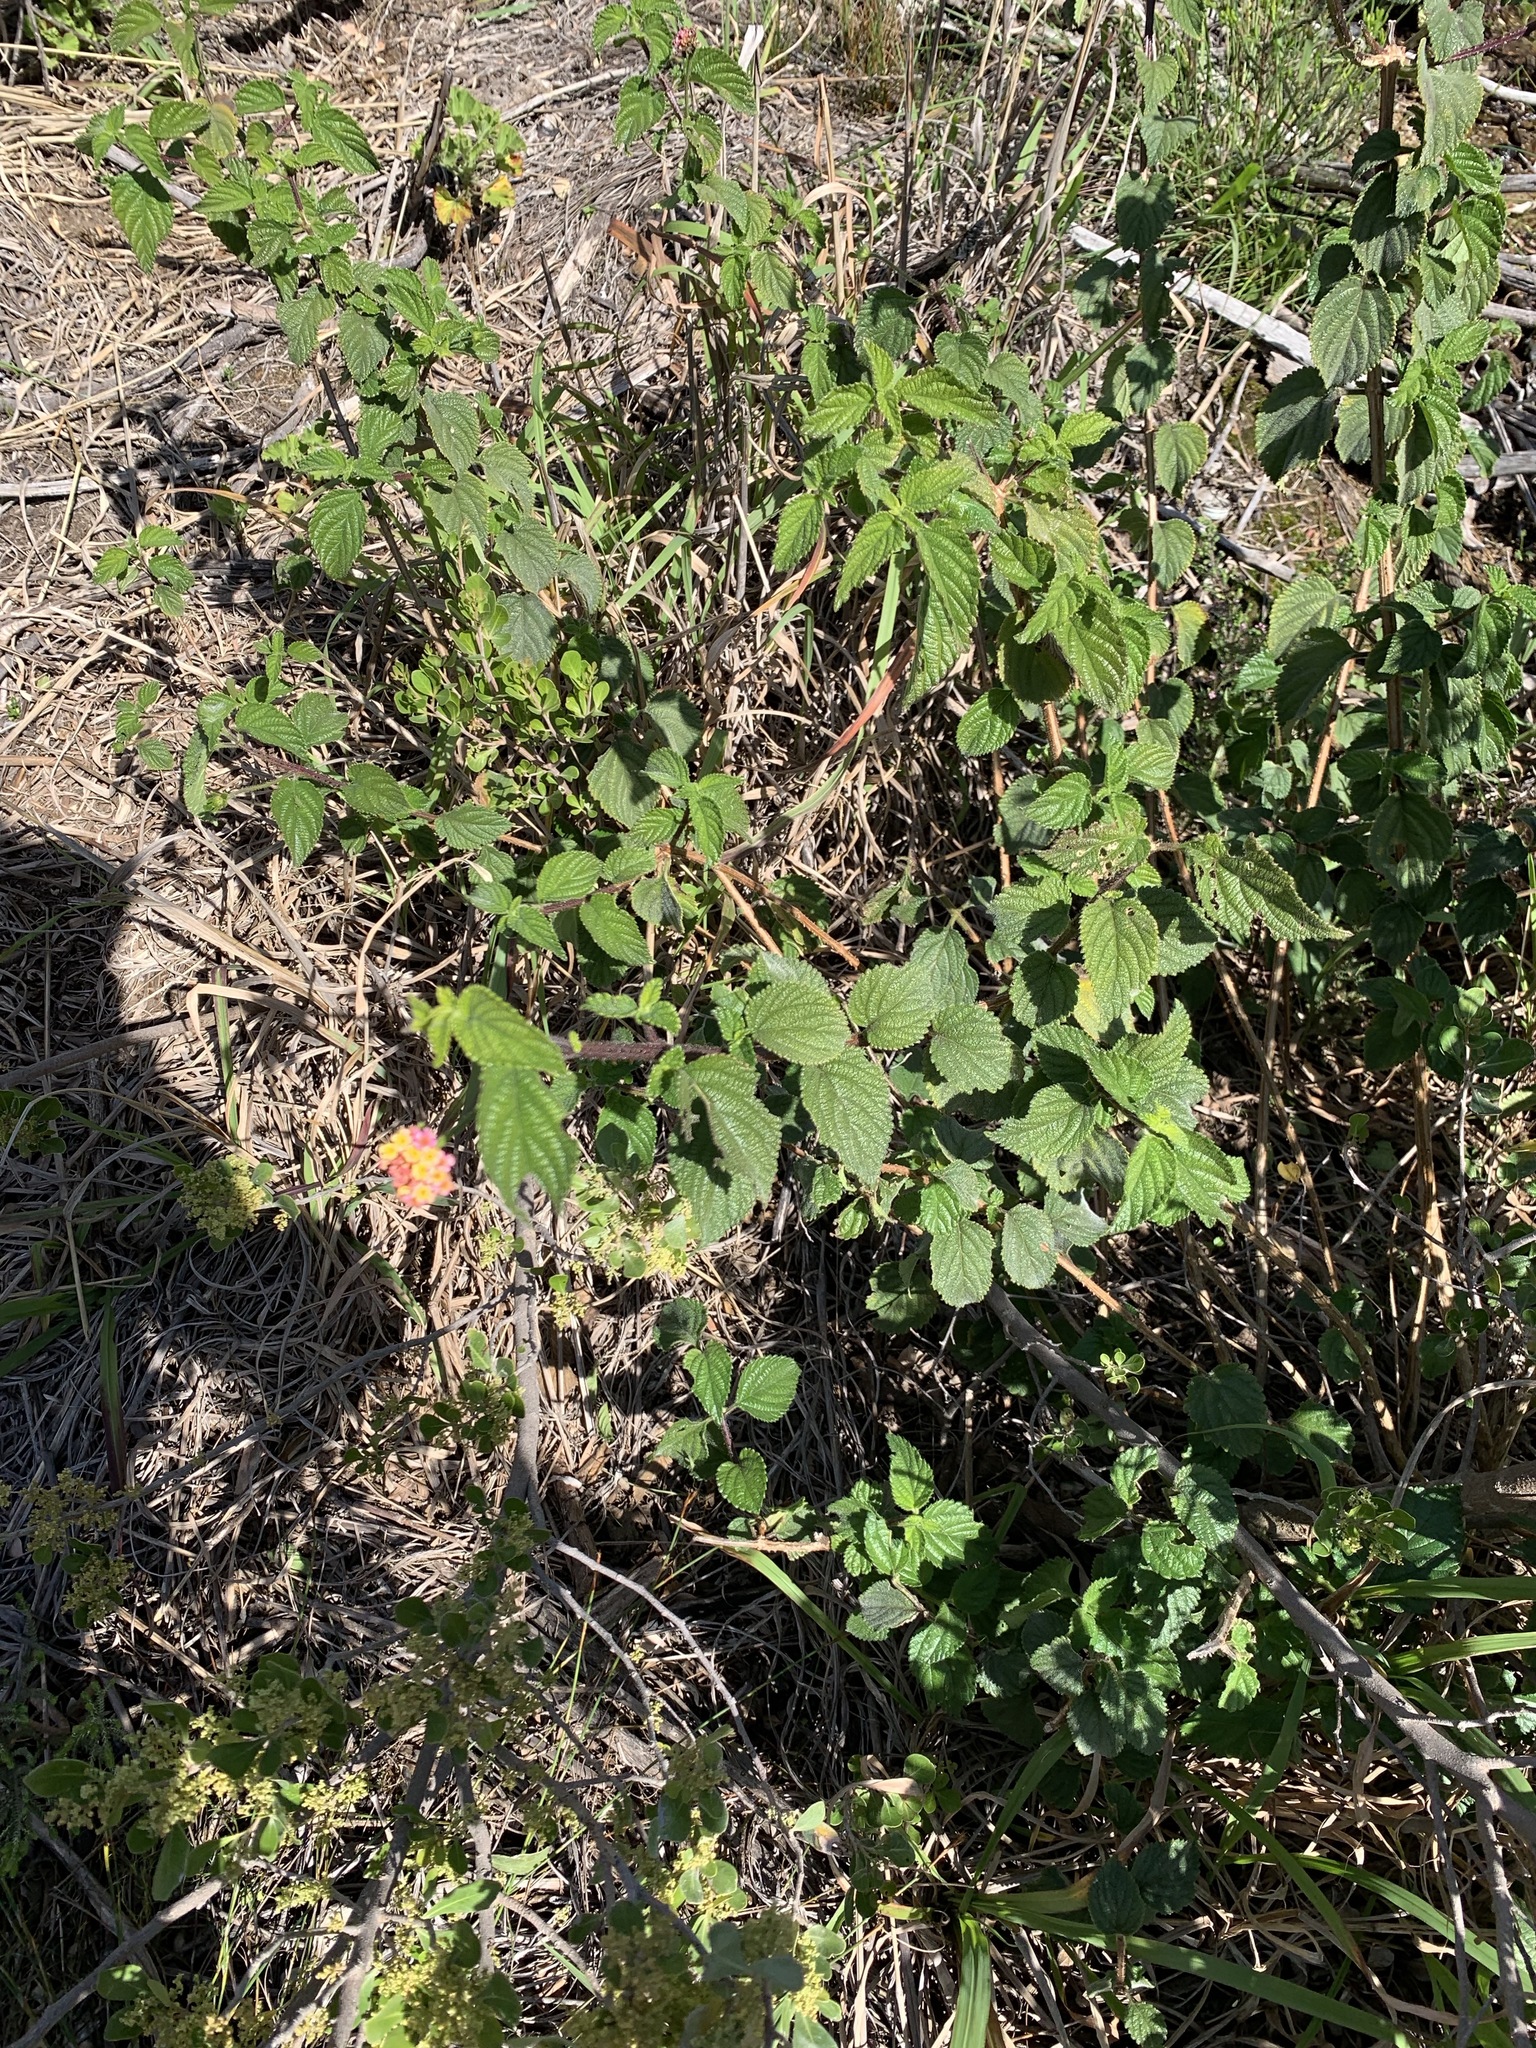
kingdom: Plantae
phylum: Tracheophyta
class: Magnoliopsida
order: Lamiales
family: Verbenaceae
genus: Lantana
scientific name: Lantana camara
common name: Lantana
